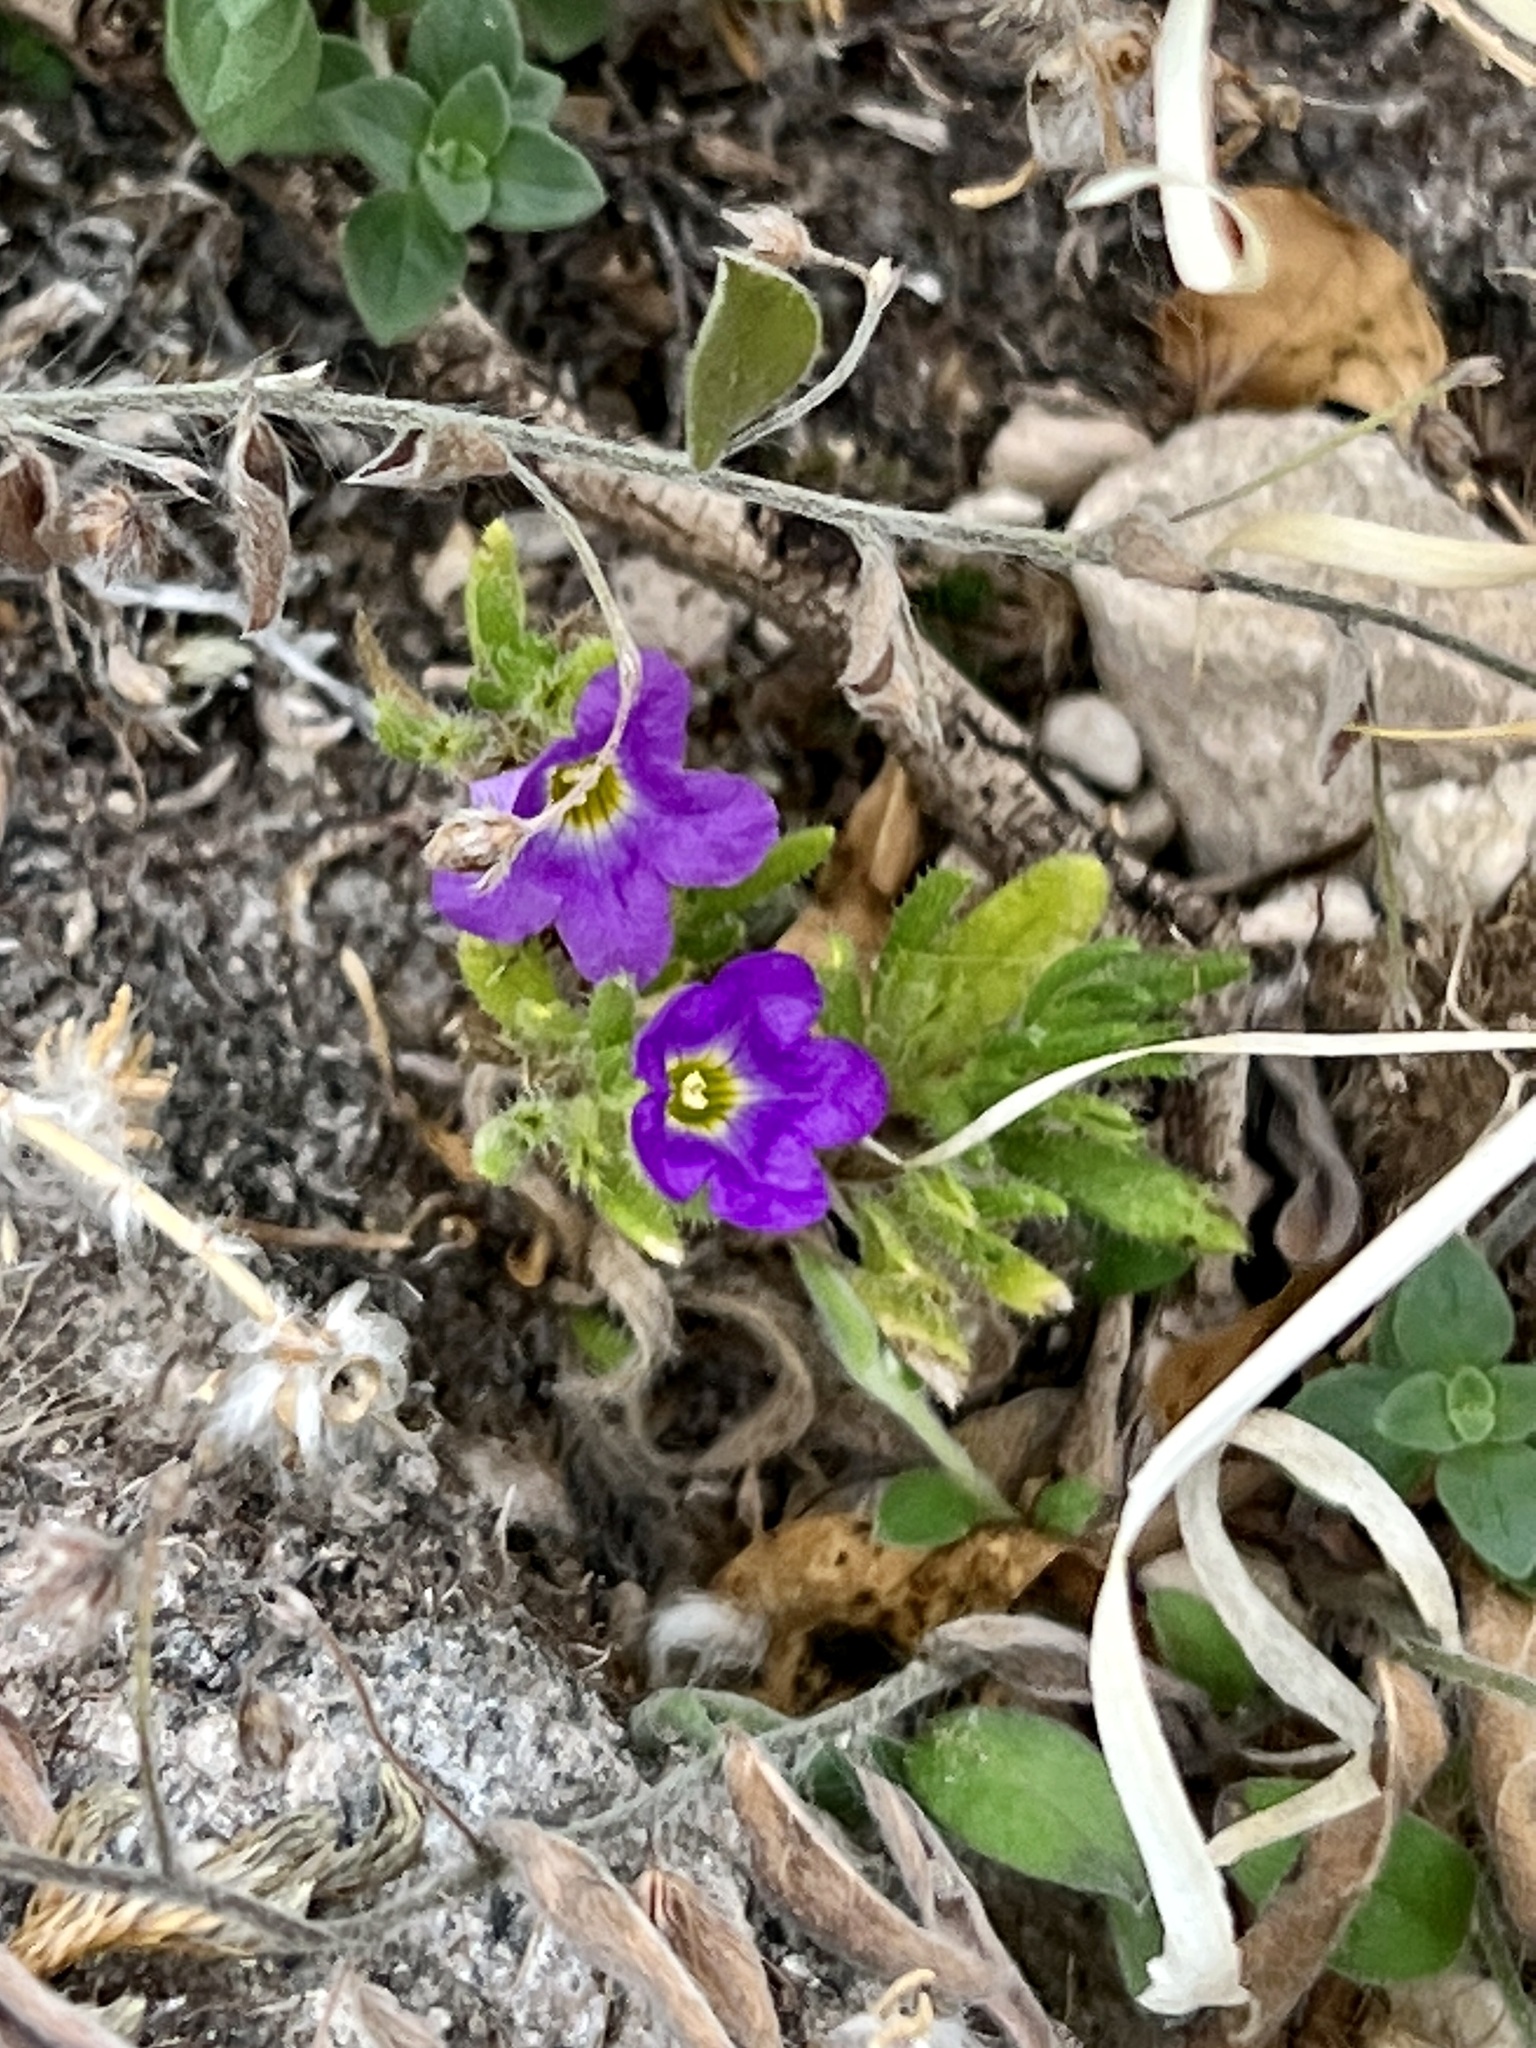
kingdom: Plantae
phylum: Tracheophyta
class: Magnoliopsida
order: Boraginales
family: Namaceae
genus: Nama
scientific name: Nama hispida
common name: Bristly nama
